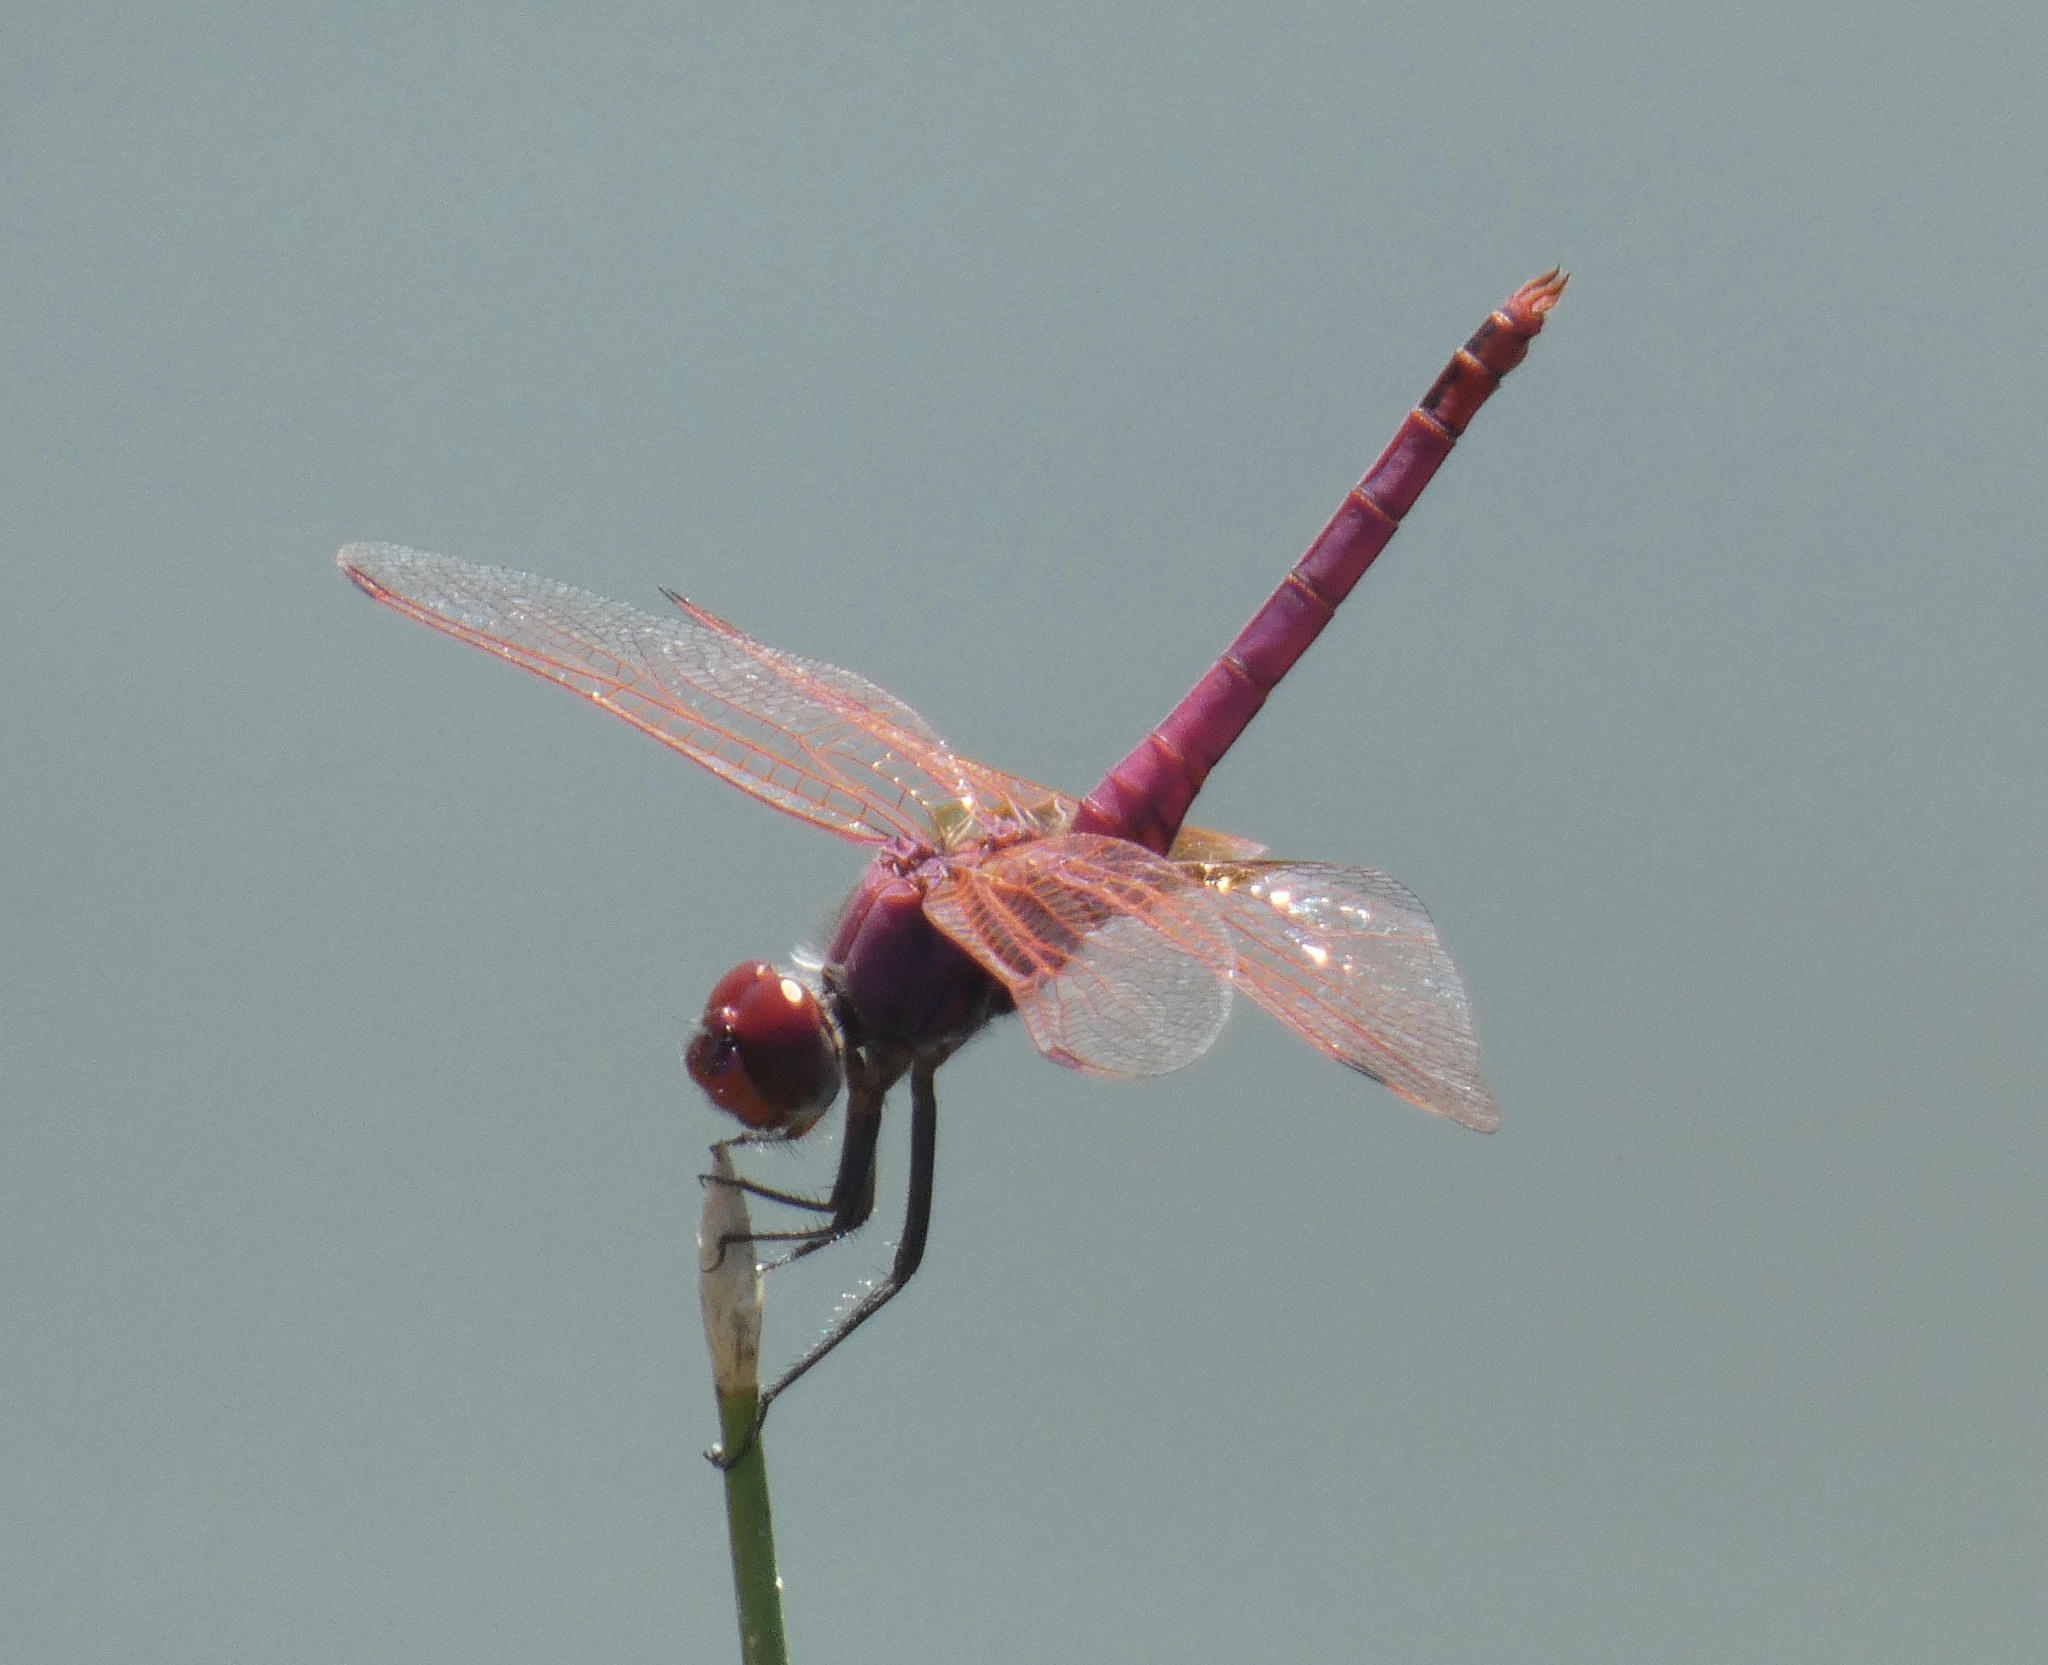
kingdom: Animalia
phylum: Arthropoda
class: Insecta
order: Odonata
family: Libellulidae
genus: Trithemis
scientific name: Trithemis annulata
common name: Violet dropwing
